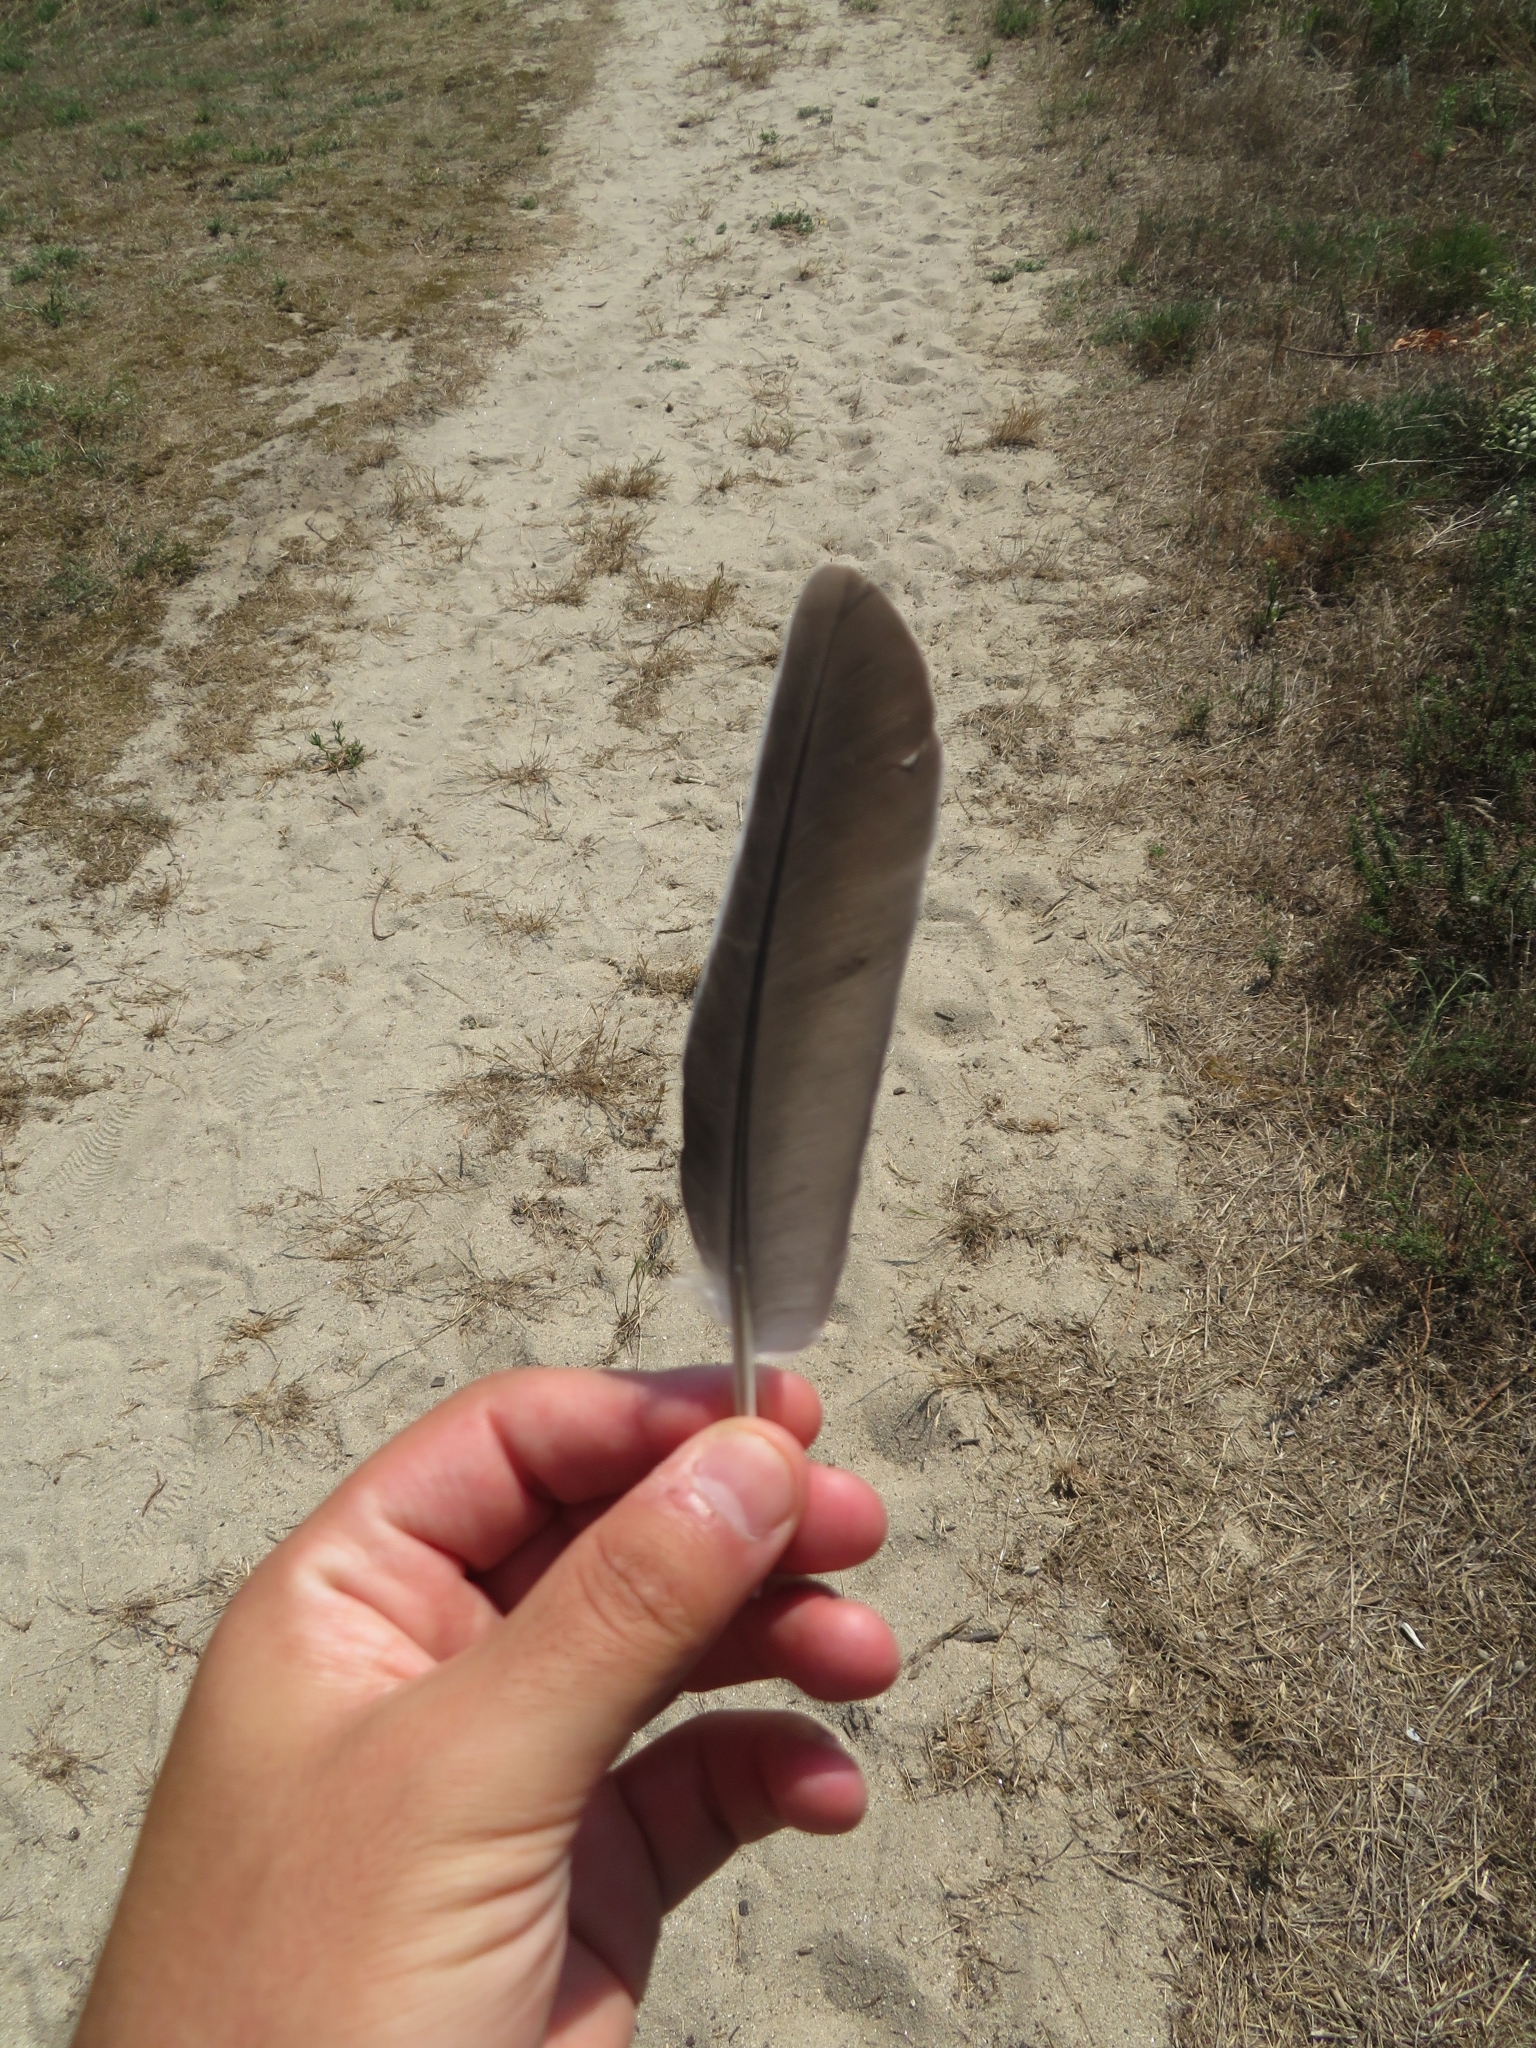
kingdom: Animalia
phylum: Chordata
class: Aves
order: Columbiformes
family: Columbidae
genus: Columba
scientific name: Columba palumbus
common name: Common wood pigeon
